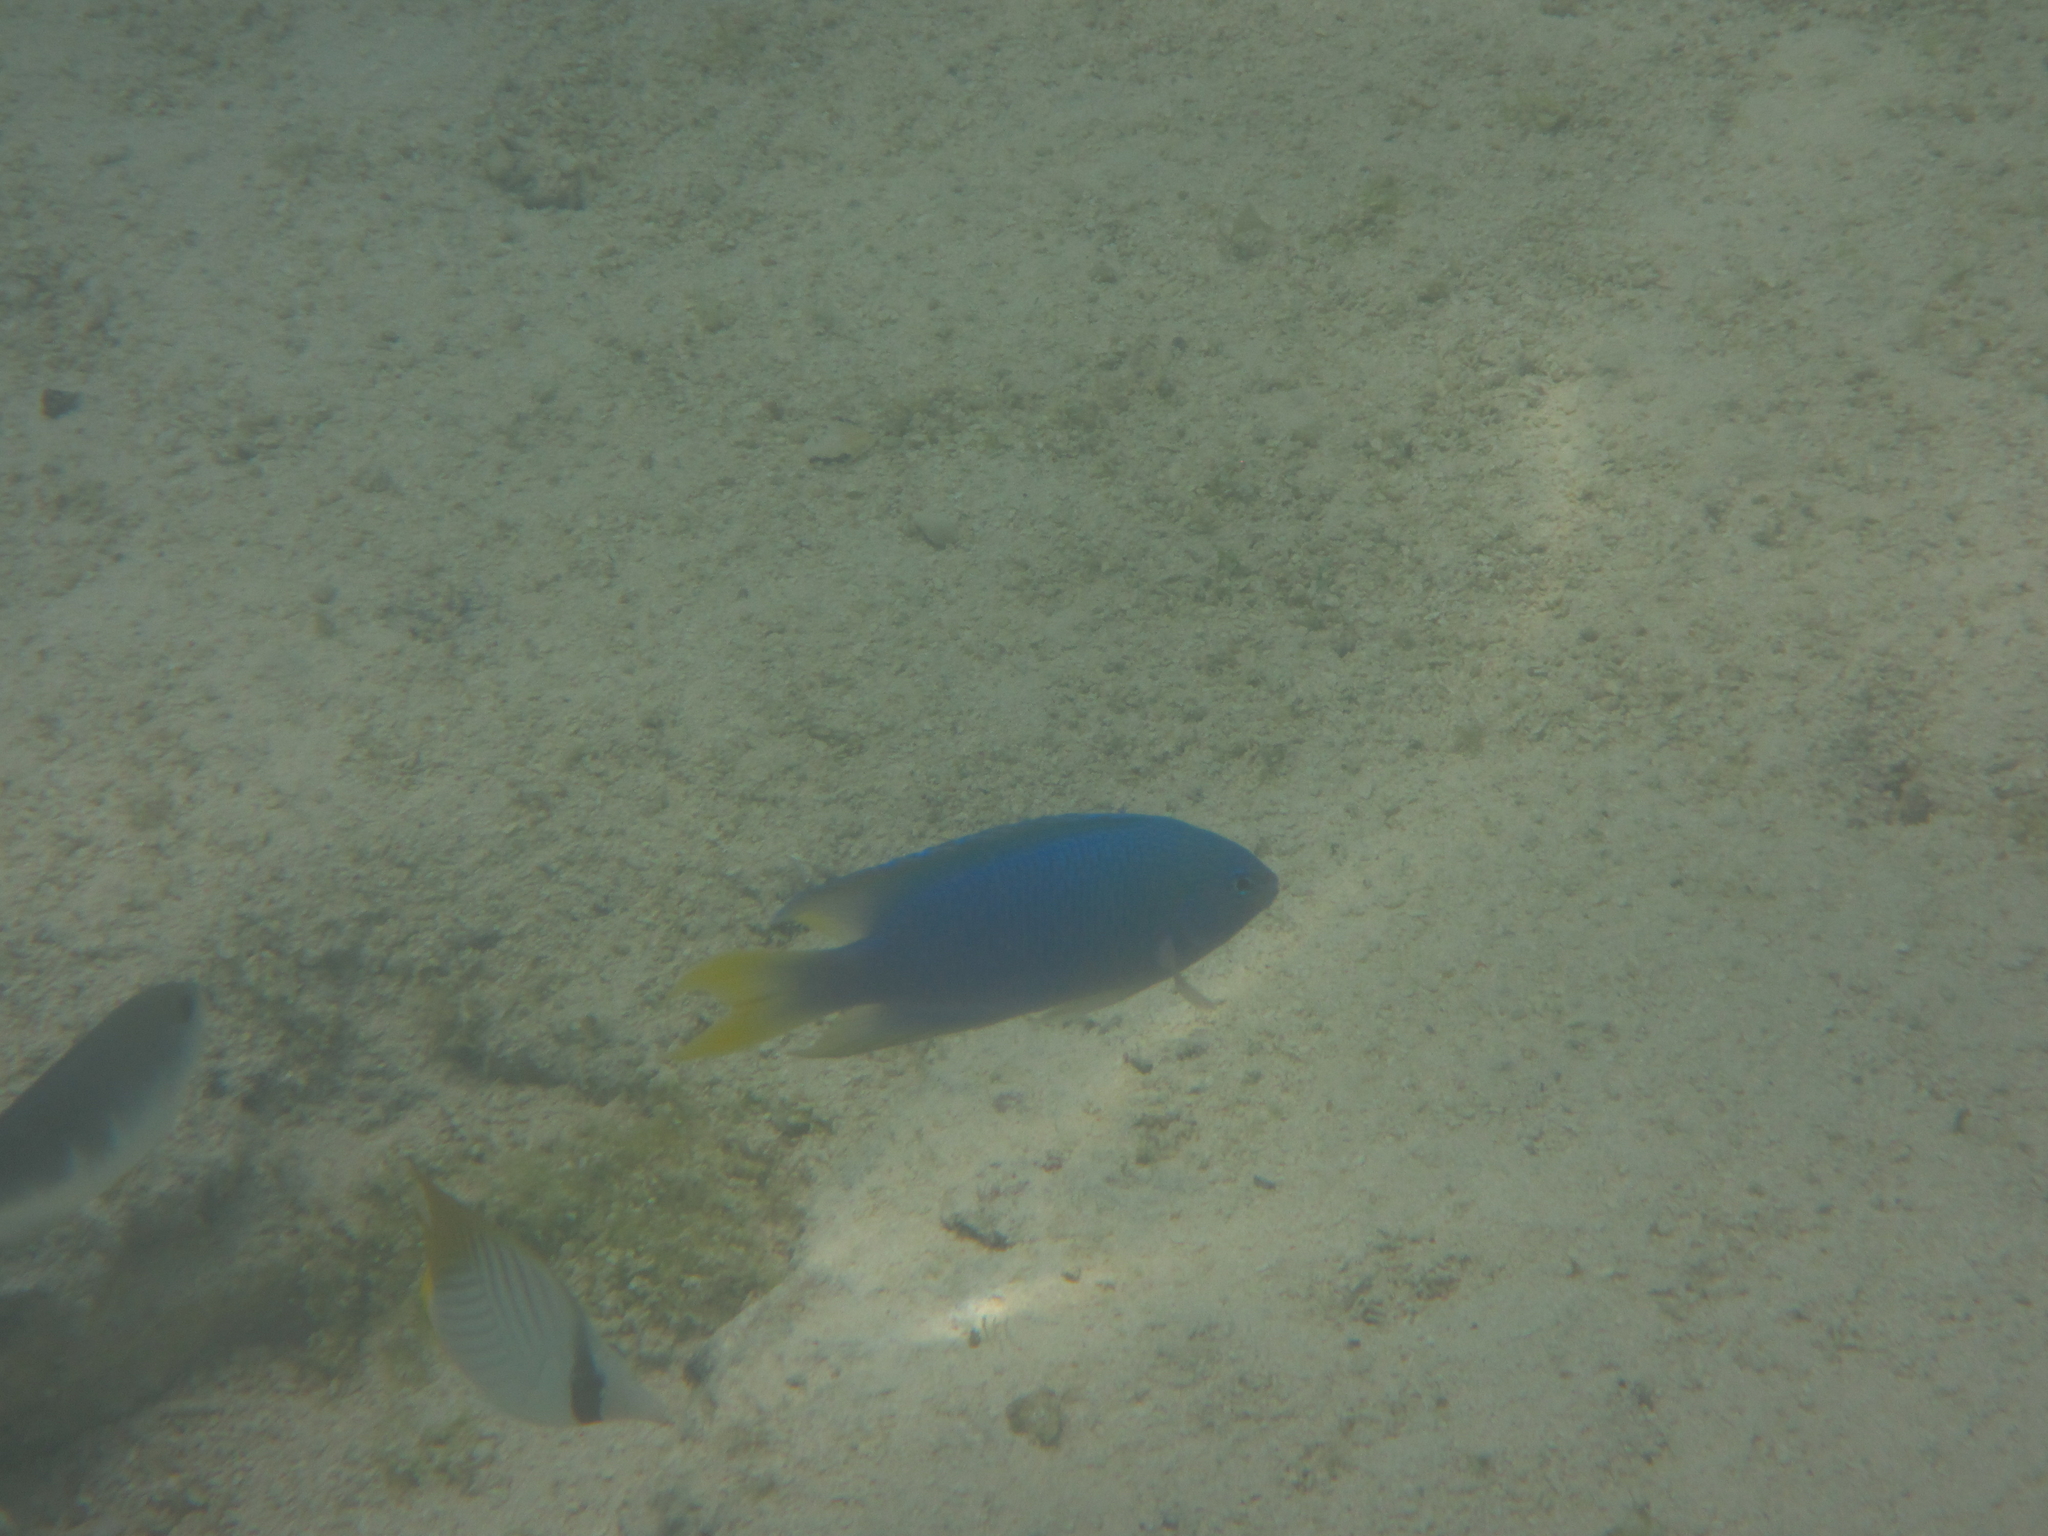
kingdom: Animalia
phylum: Chordata
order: Perciformes
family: Pomacentridae
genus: Pomacentrus
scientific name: Pomacentrus pavo
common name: Sapphire damsel
